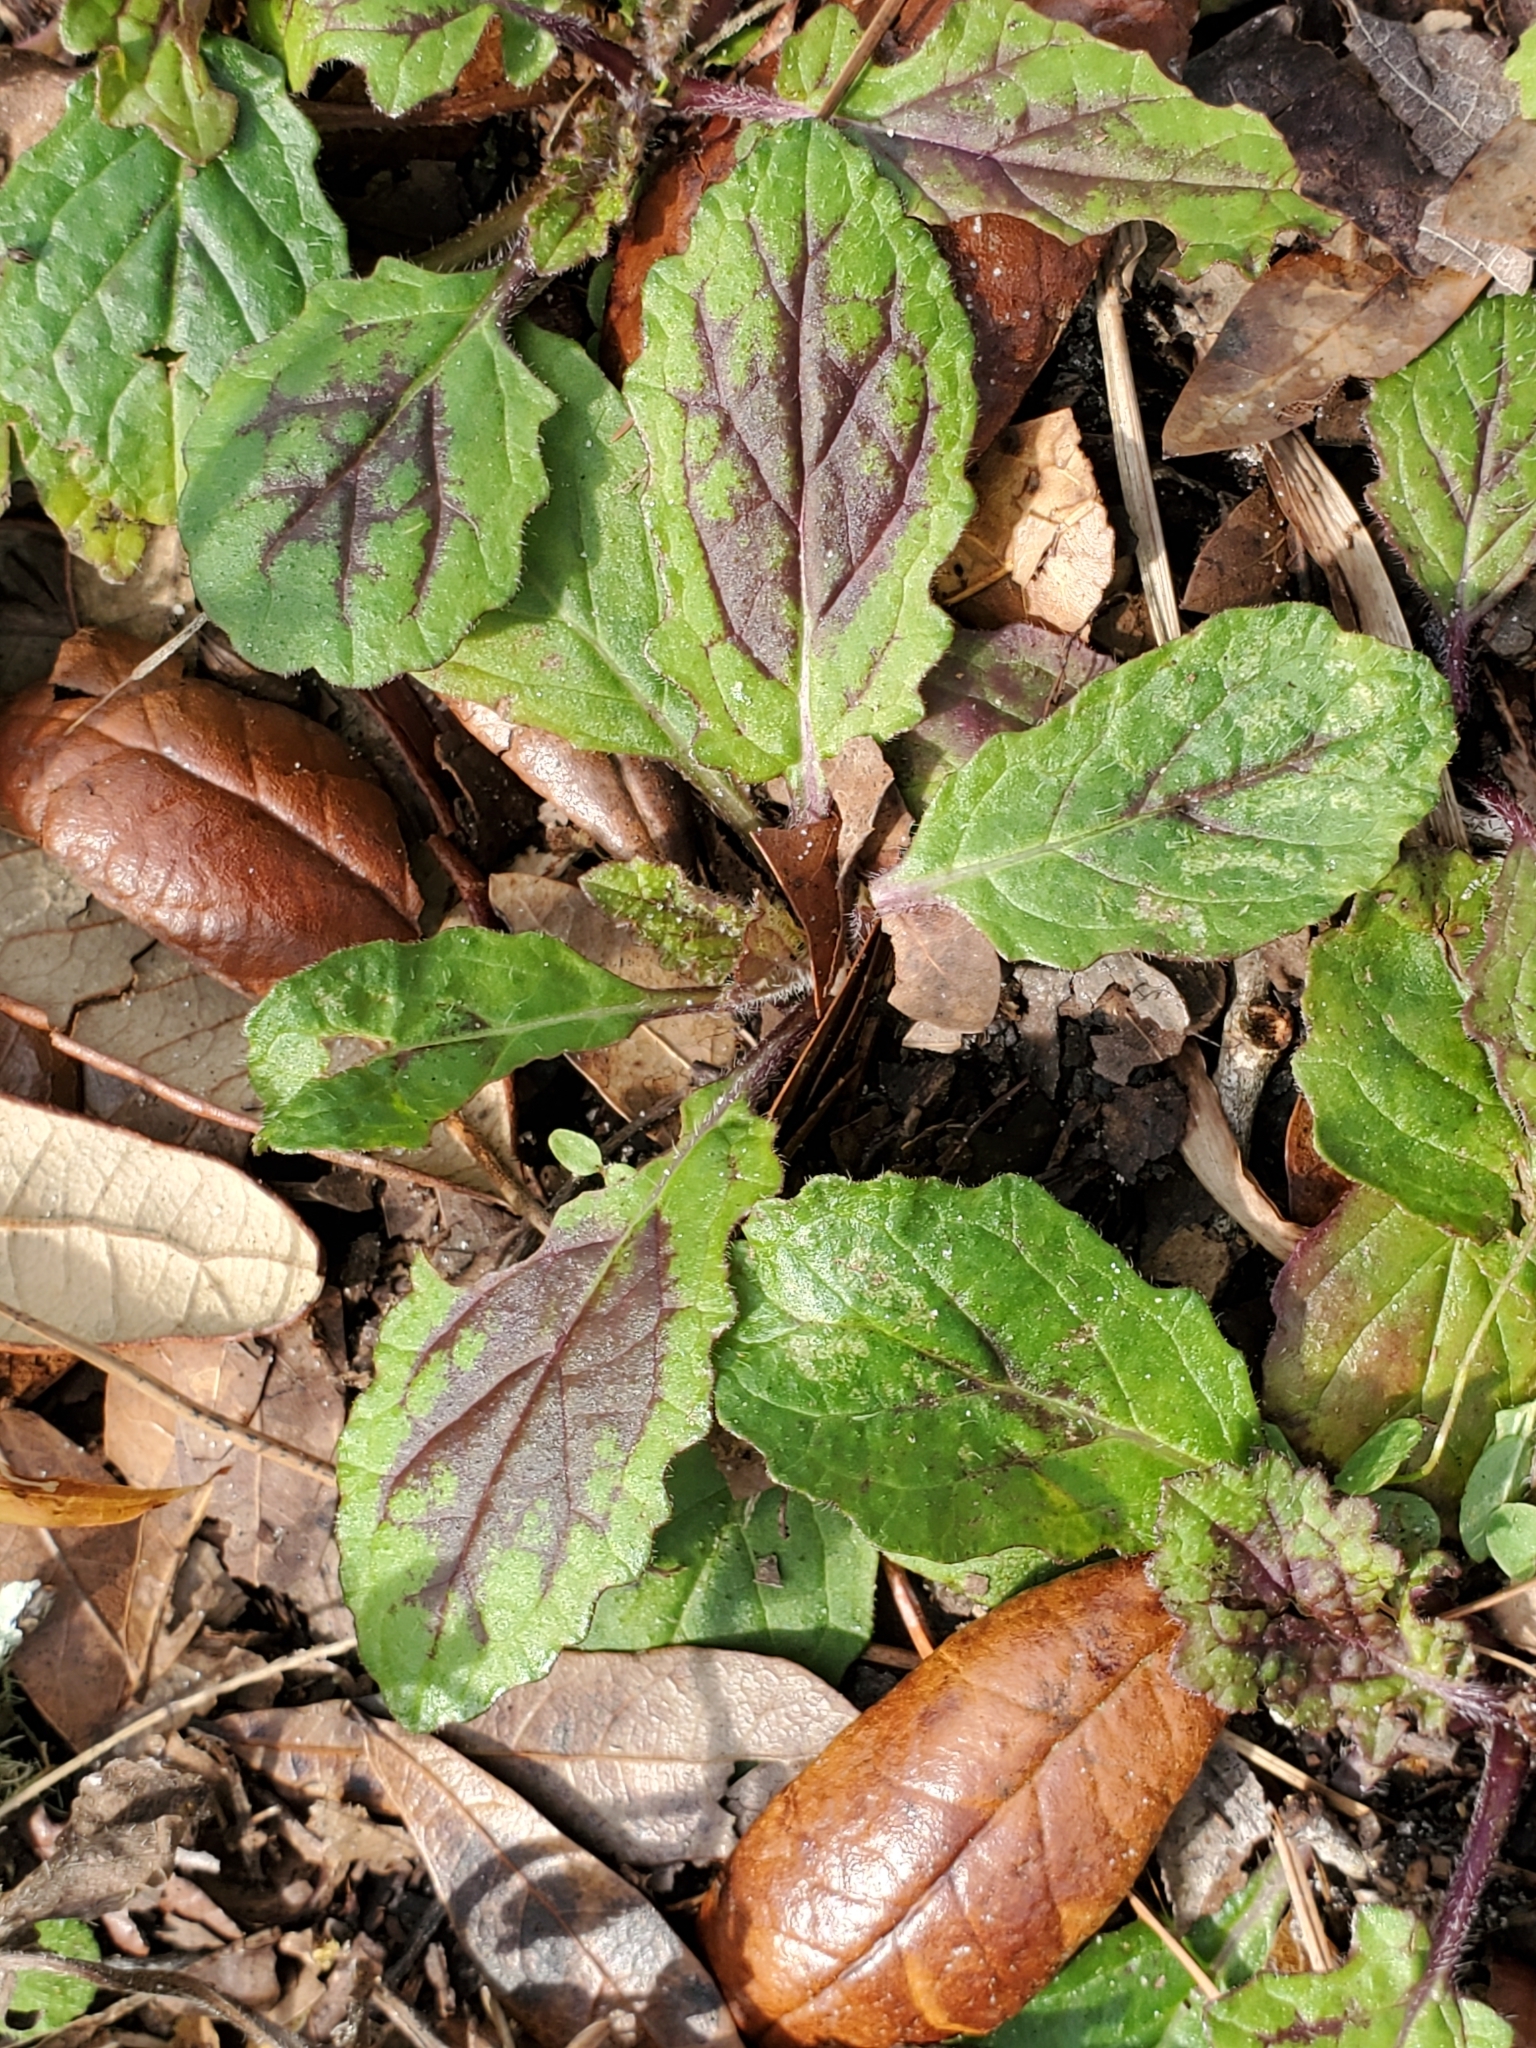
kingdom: Plantae
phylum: Tracheophyta
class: Magnoliopsida
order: Lamiales
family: Lamiaceae
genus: Salvia
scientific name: Salvia lyrata
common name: Cancerweed
